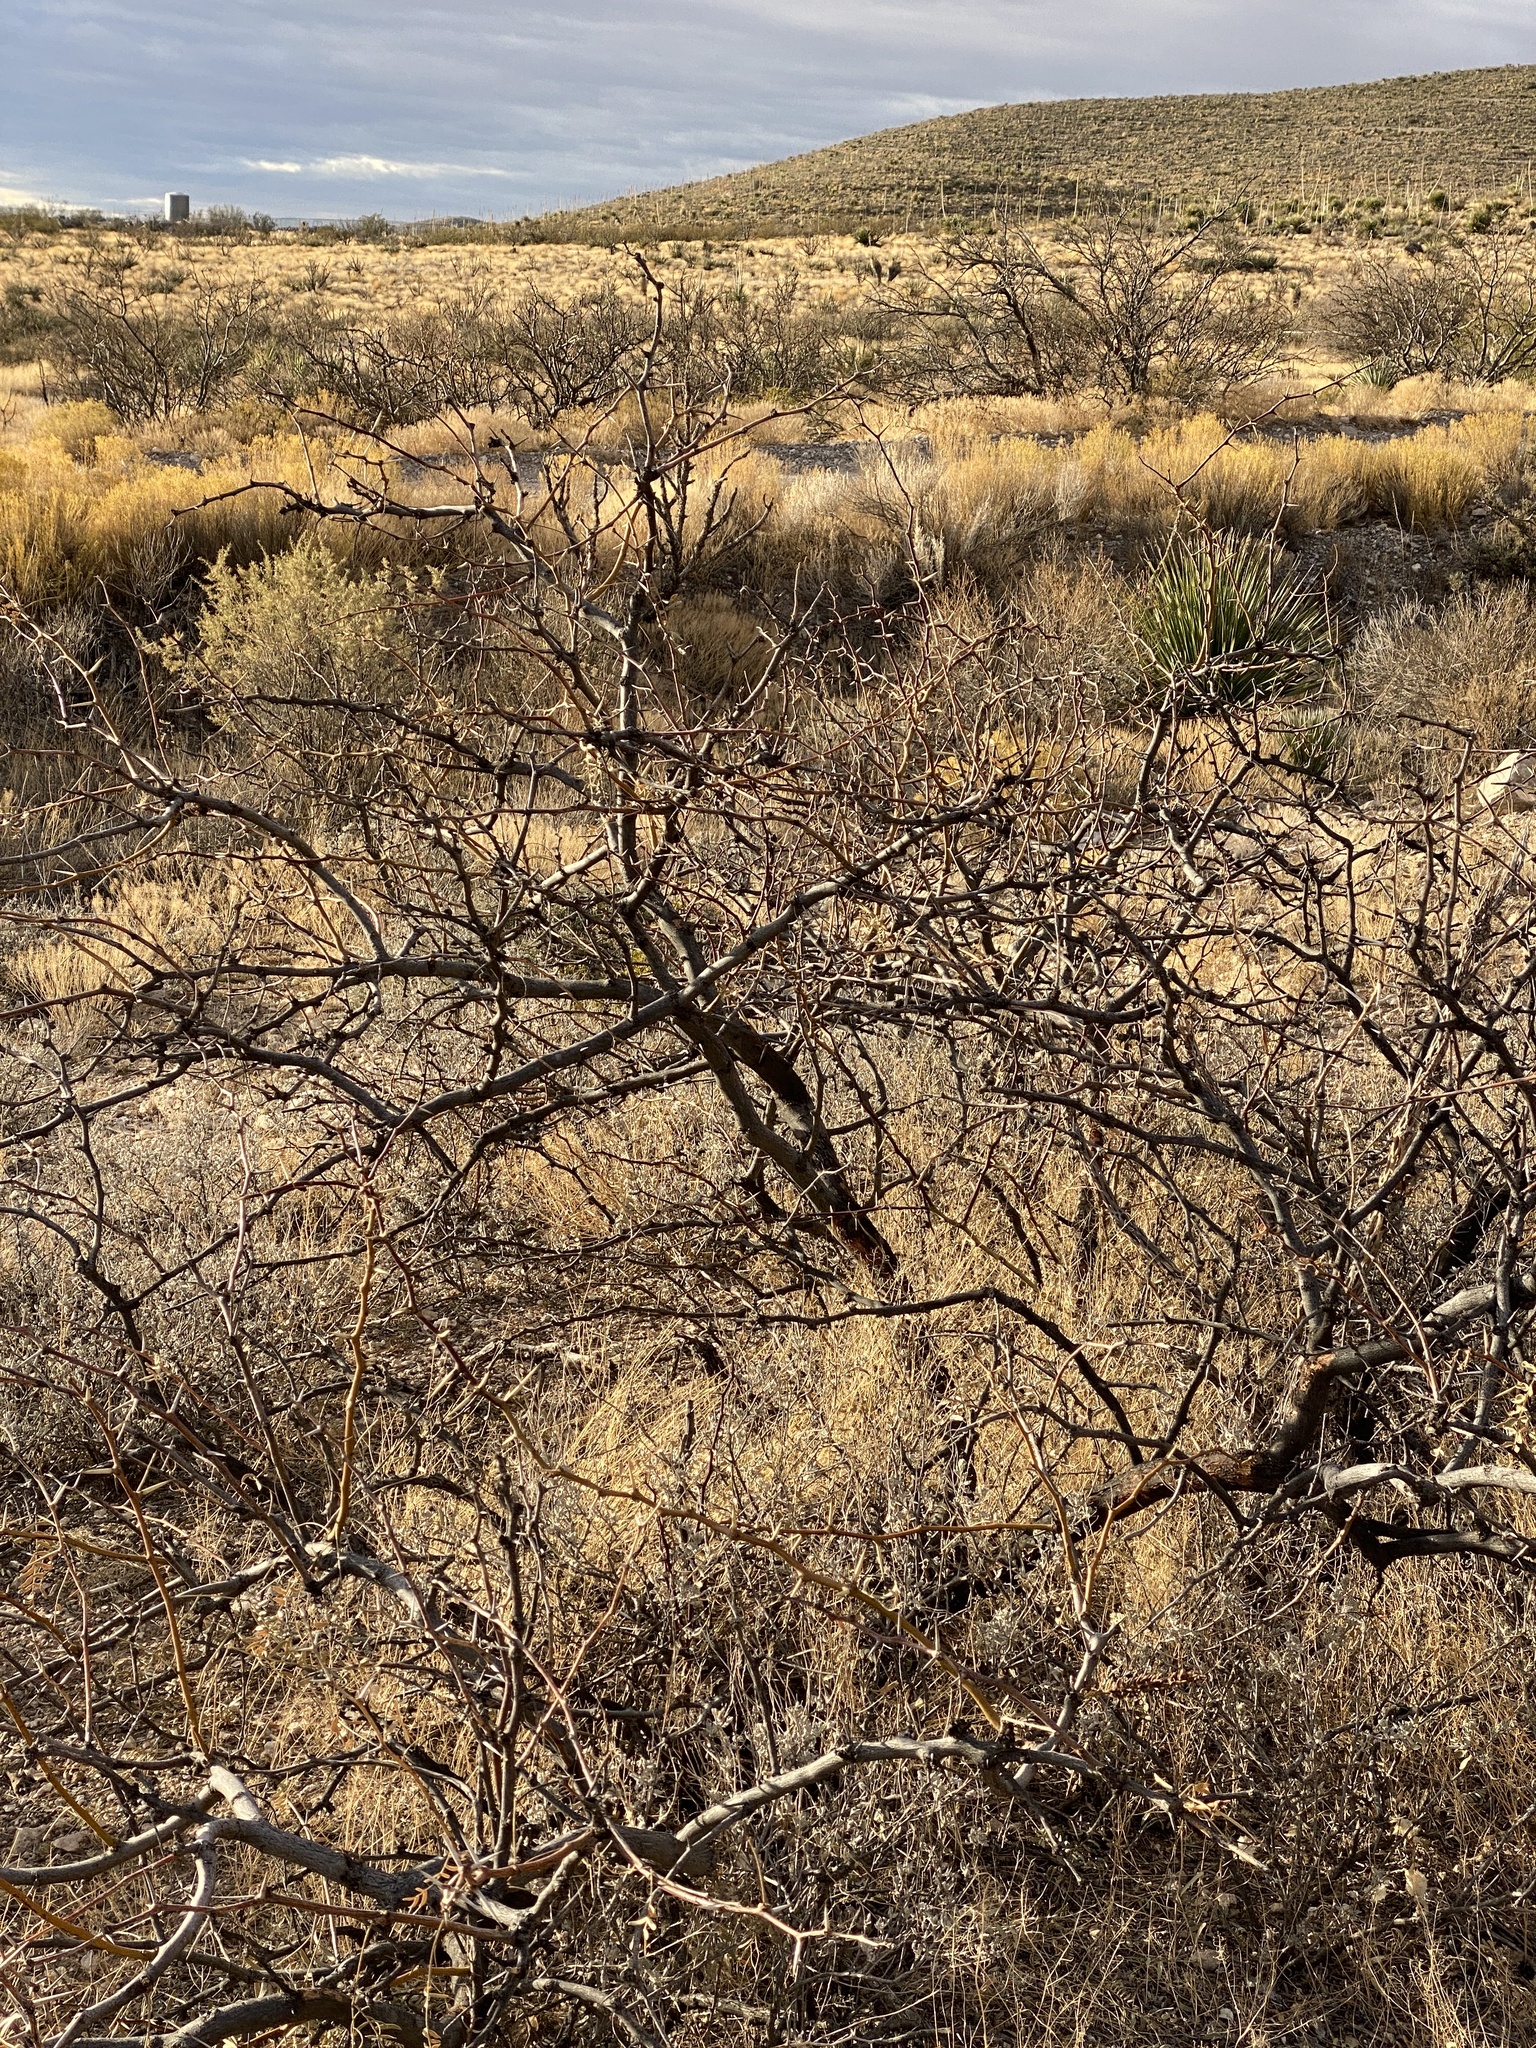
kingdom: Plantae
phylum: Tracheophyta
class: Magnoliopsida
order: Fabales
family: Fabaceae
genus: Prosopis
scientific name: Prosopis glandulosa
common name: Honey mesquite
